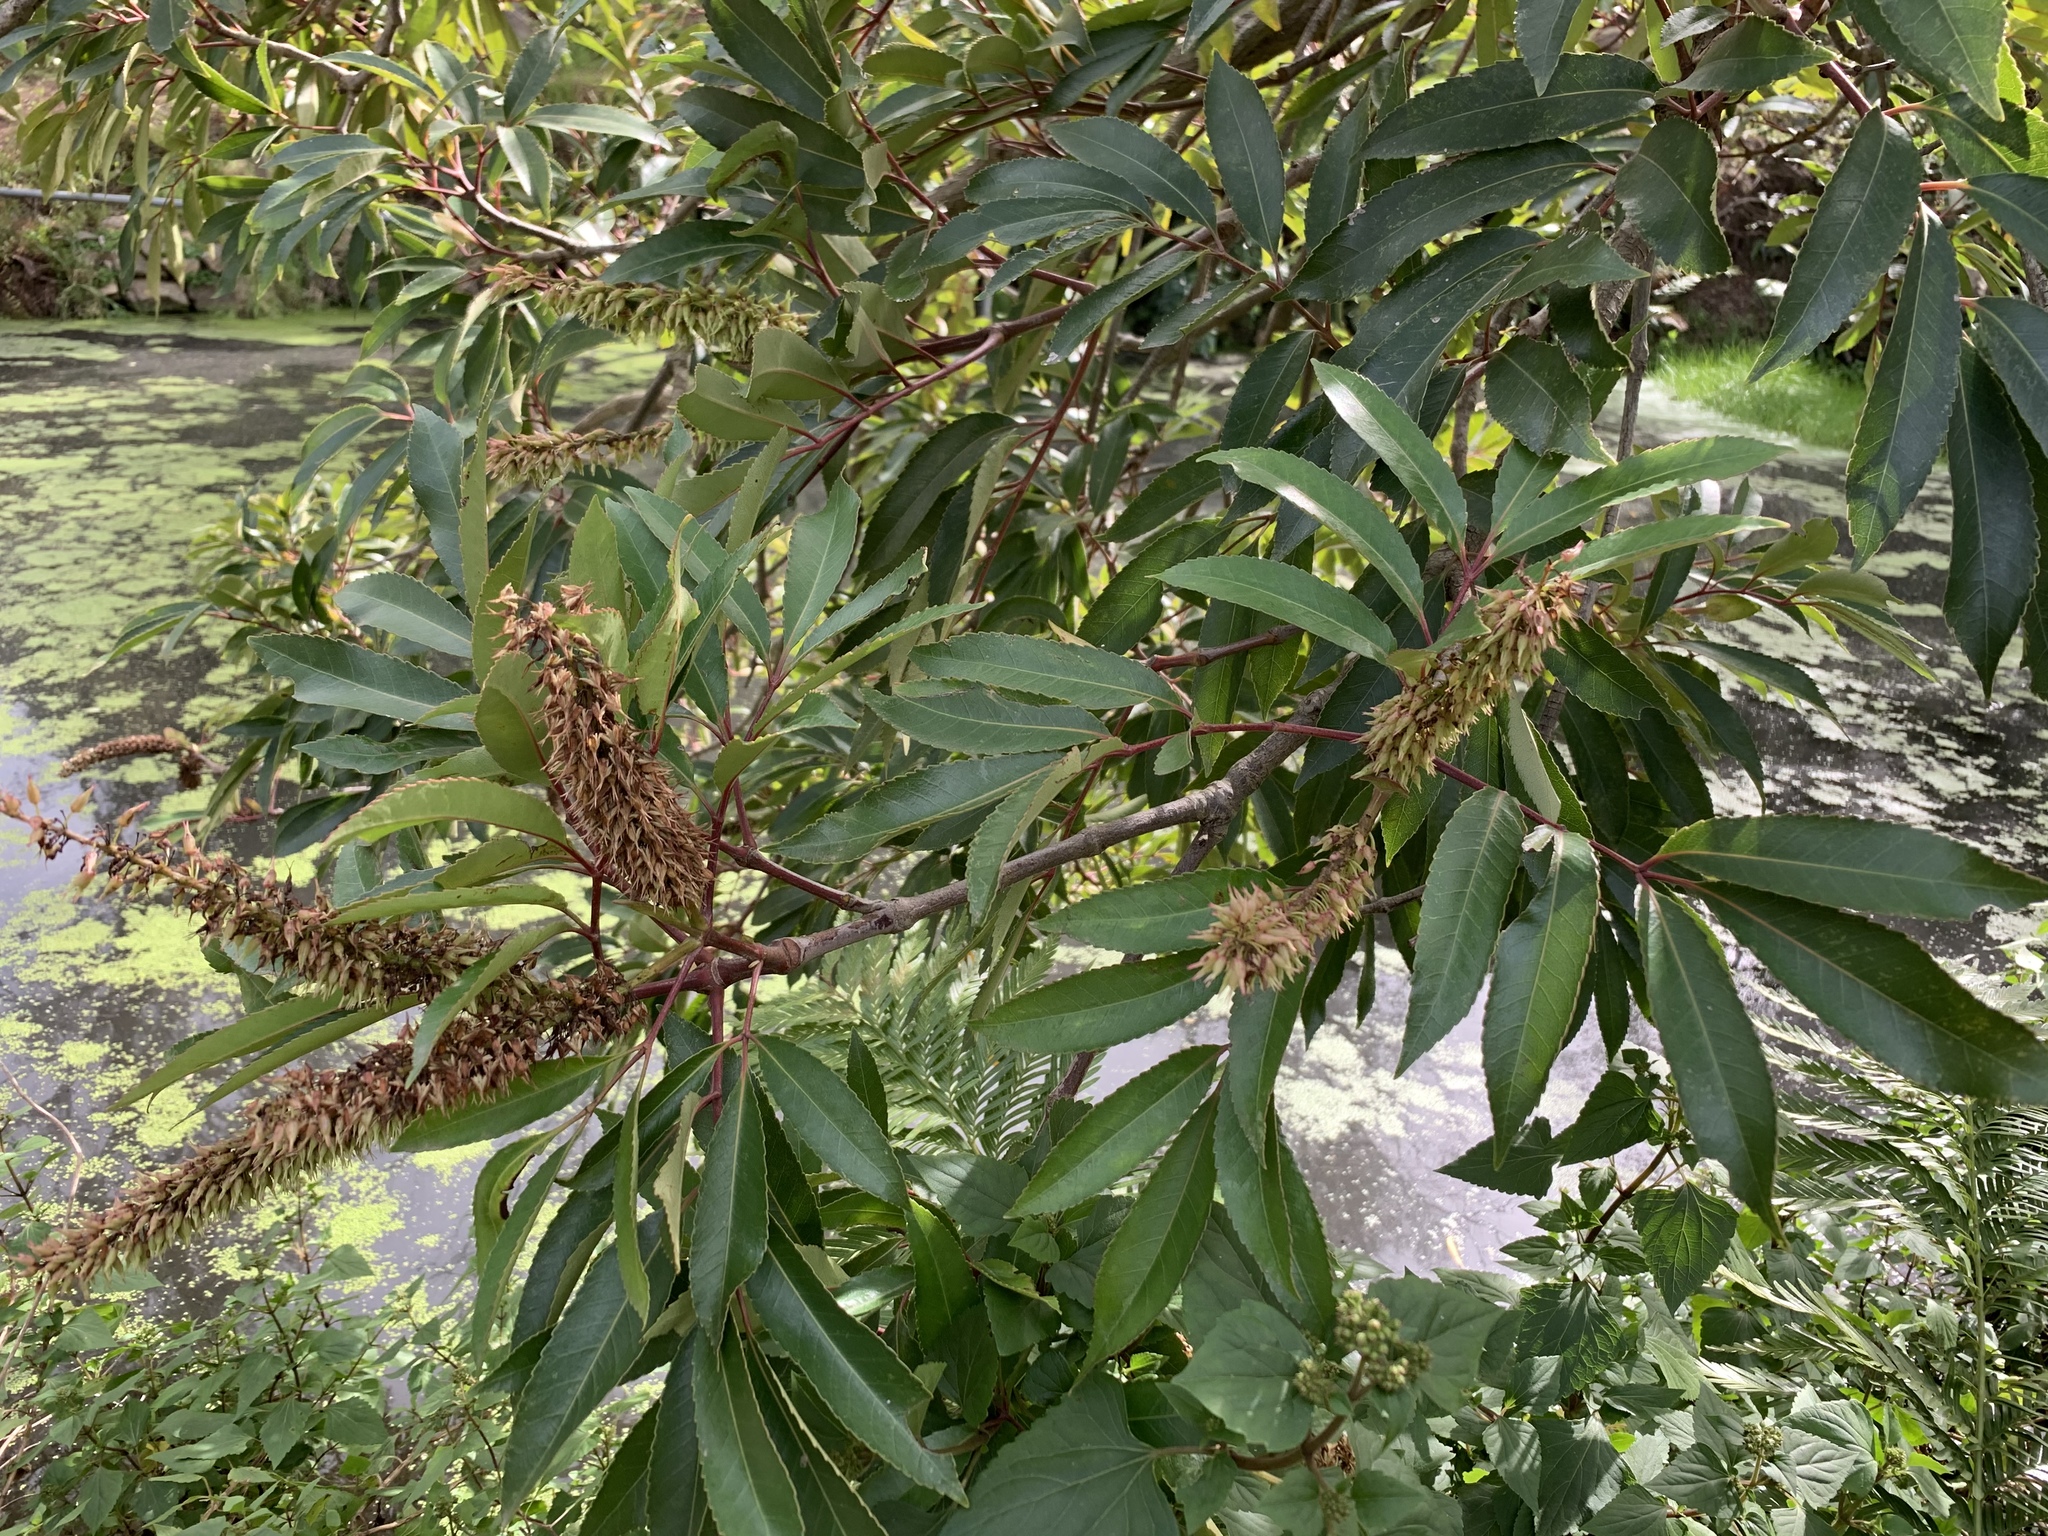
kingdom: Plantae
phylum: Tracheophyta
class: Magnoliopsida
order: Oxalidales
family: Cunoniaceae
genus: Cunonia
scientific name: Cunonia capensis
